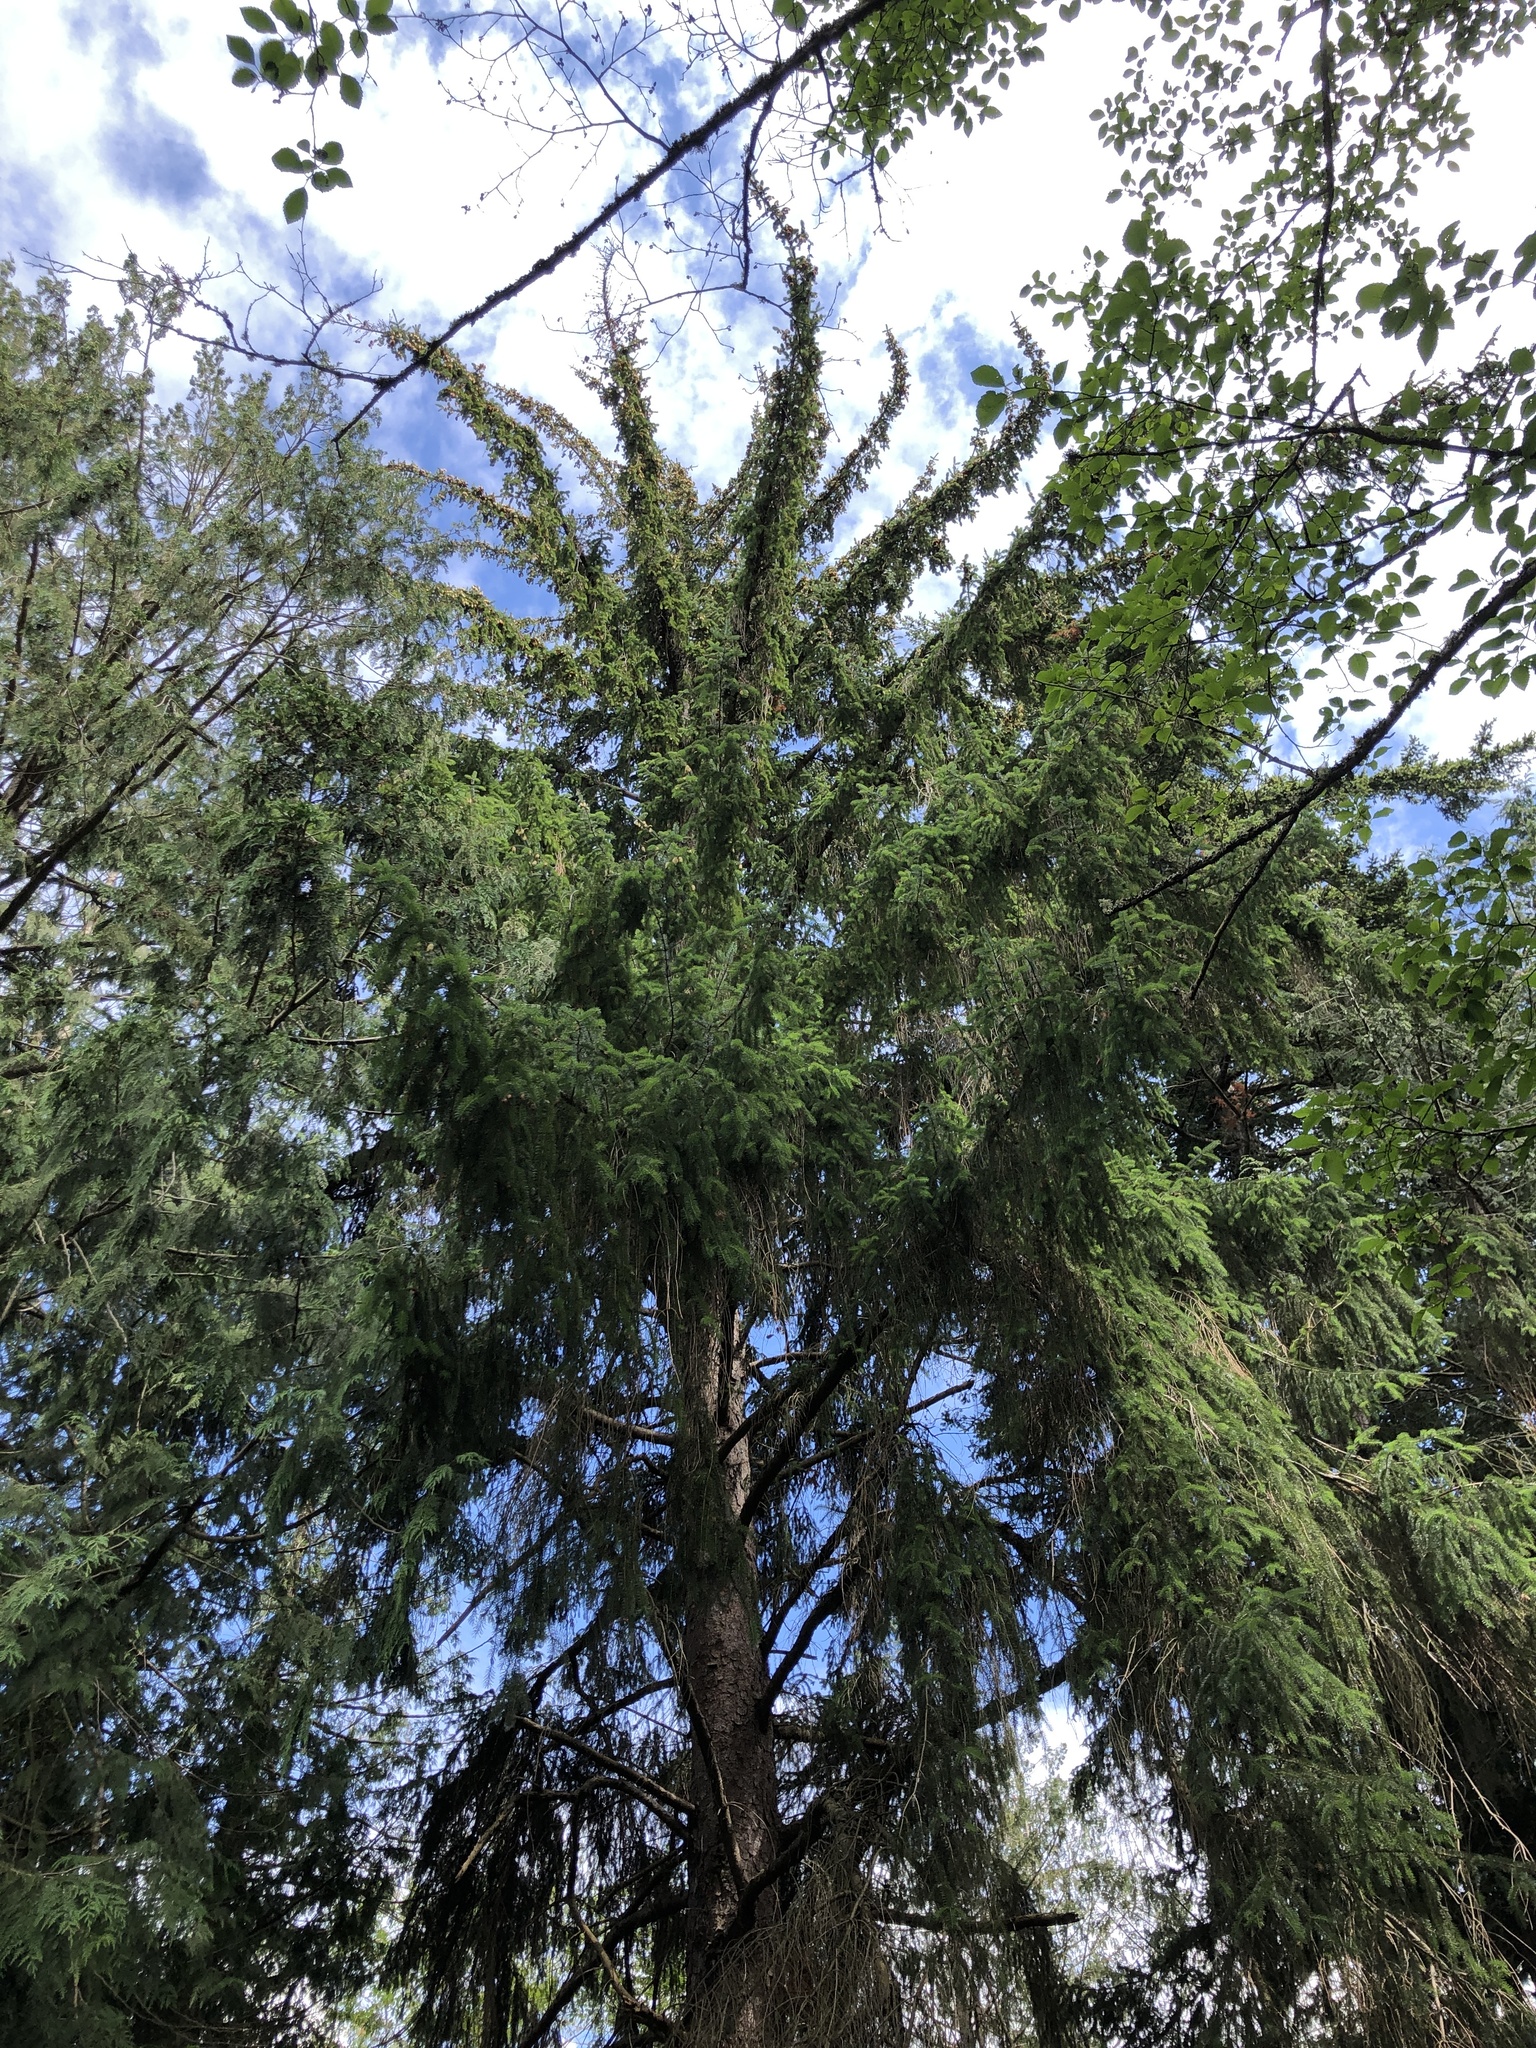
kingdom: Plantae
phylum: Tracheophyta
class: Pinopsida
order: Pinales
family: Pinaceae
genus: Picea
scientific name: Picea sitchensis
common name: Sitka spruce
